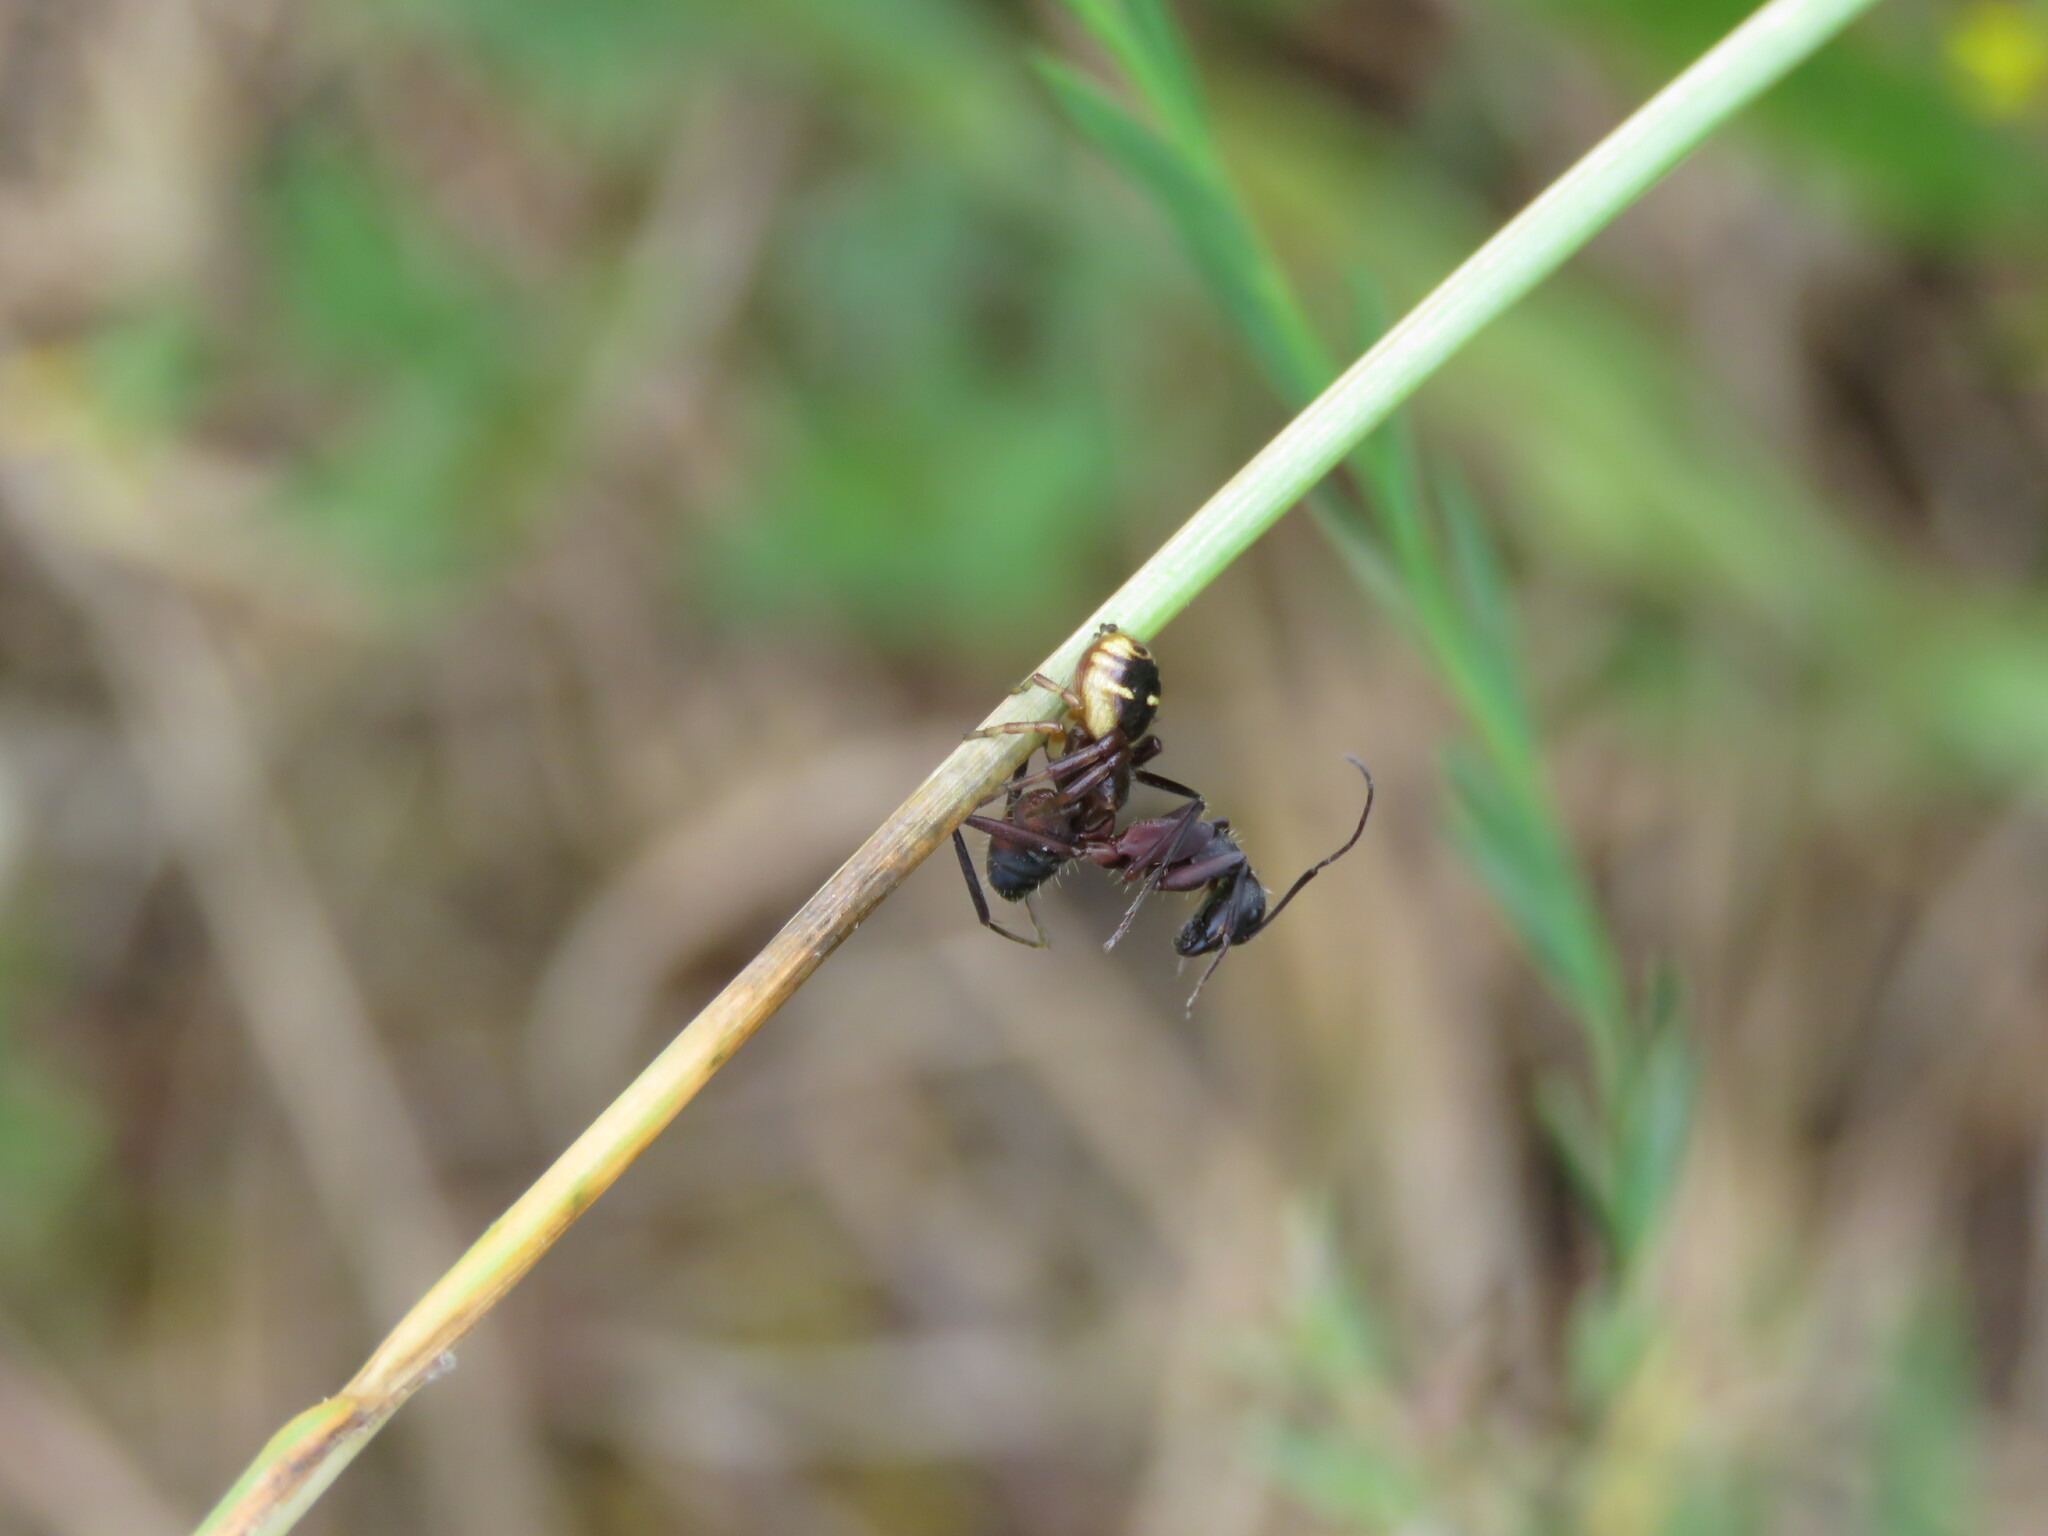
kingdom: Animalia
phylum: Arthropoda
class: Arachnida
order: Araneae
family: Thomisidae
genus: Synema
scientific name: Synema globosum
